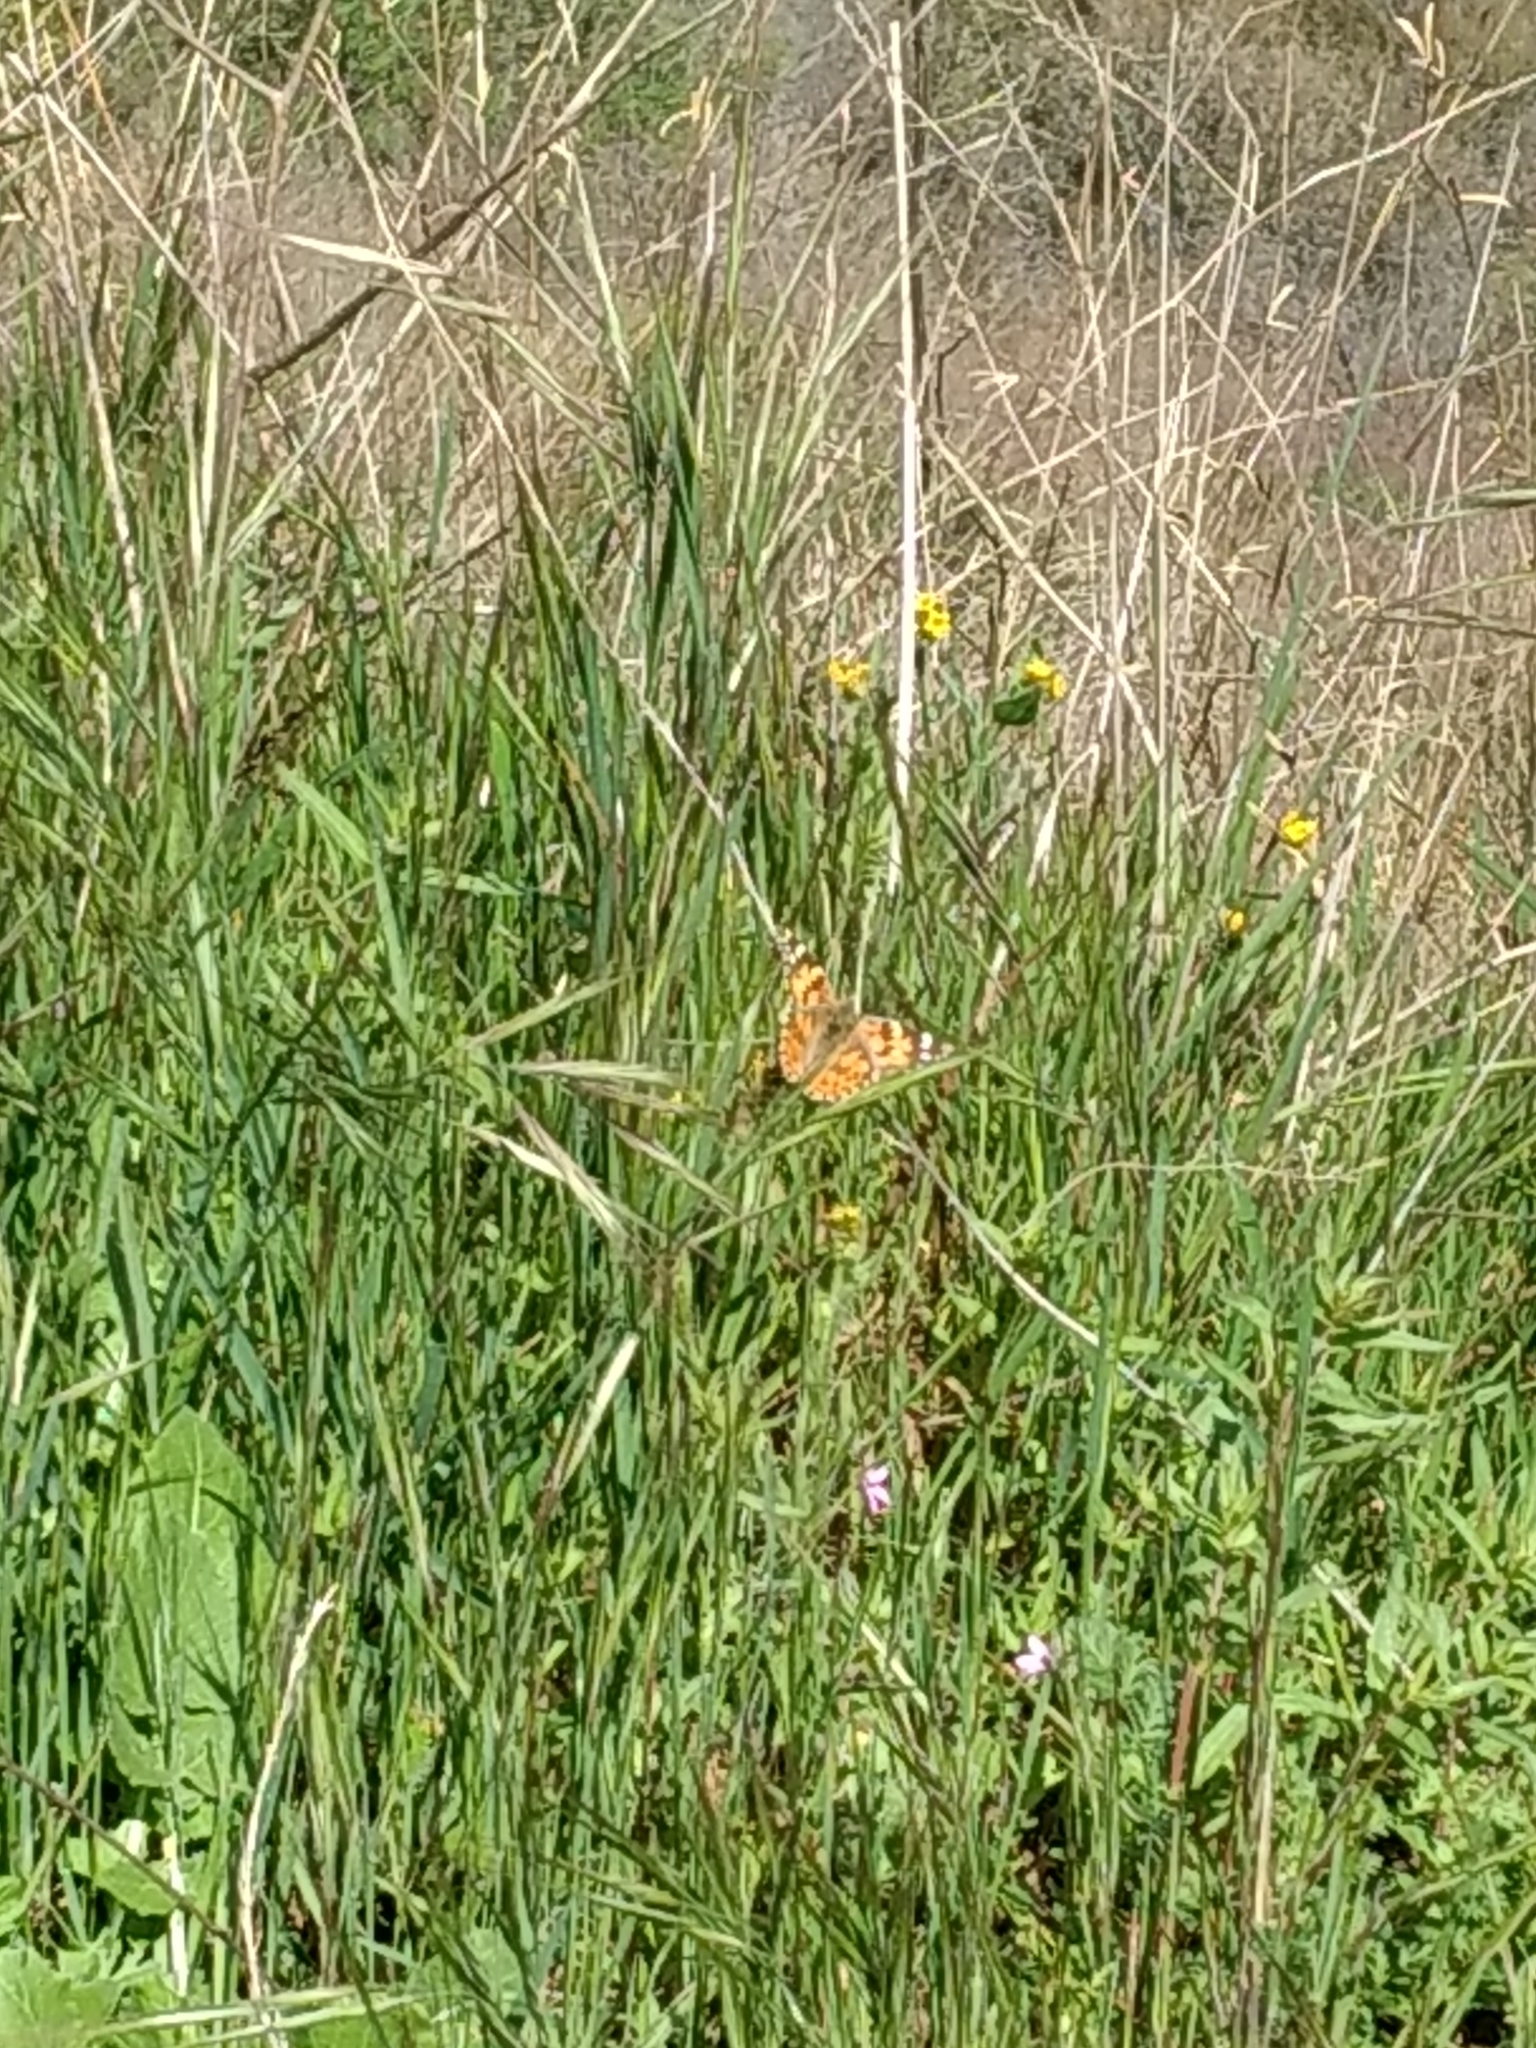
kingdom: Animalia
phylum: Arthropoda
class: Insecta
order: Lepidoptera
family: Nymphalidae
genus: Vanessa
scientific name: Vanessa cardui
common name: Painted lady
